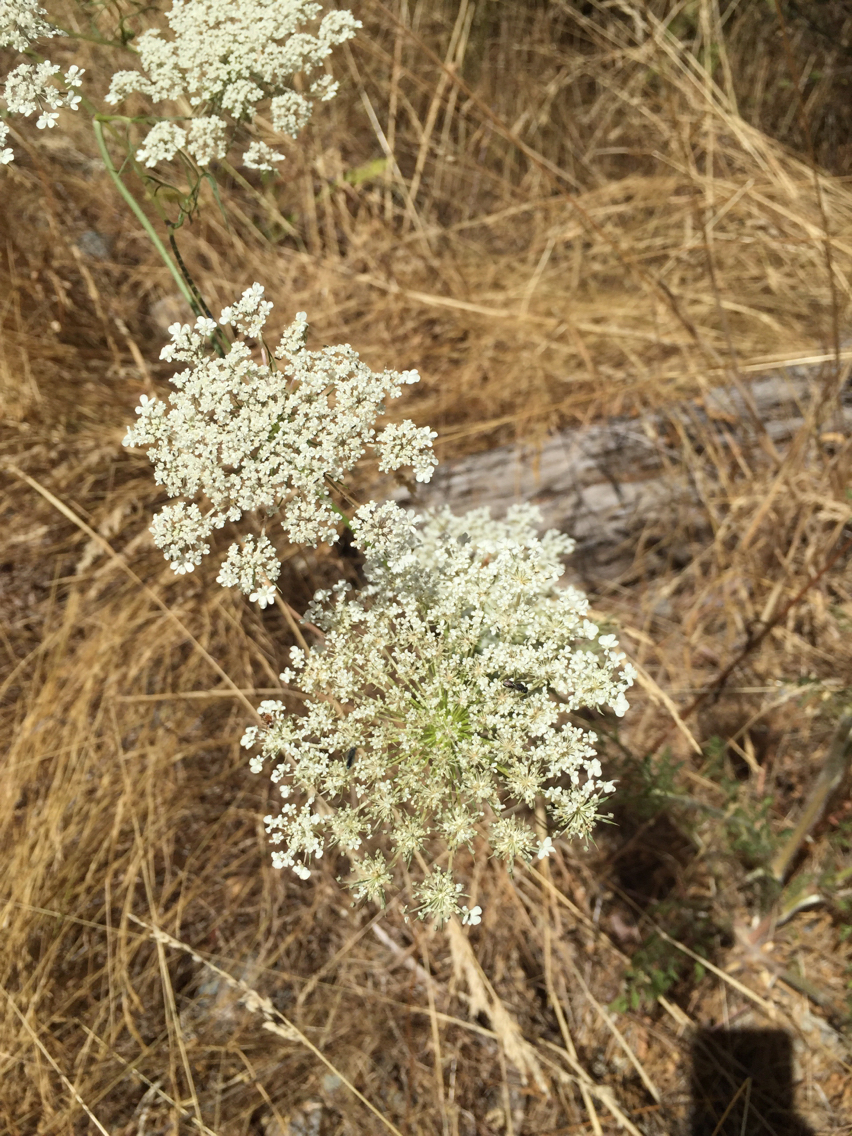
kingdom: Plantae
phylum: Tracheophyta
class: Magnoliopsida
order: Apiales
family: Apiaceae
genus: Daucus
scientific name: Daucus carota
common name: Wild carrot
